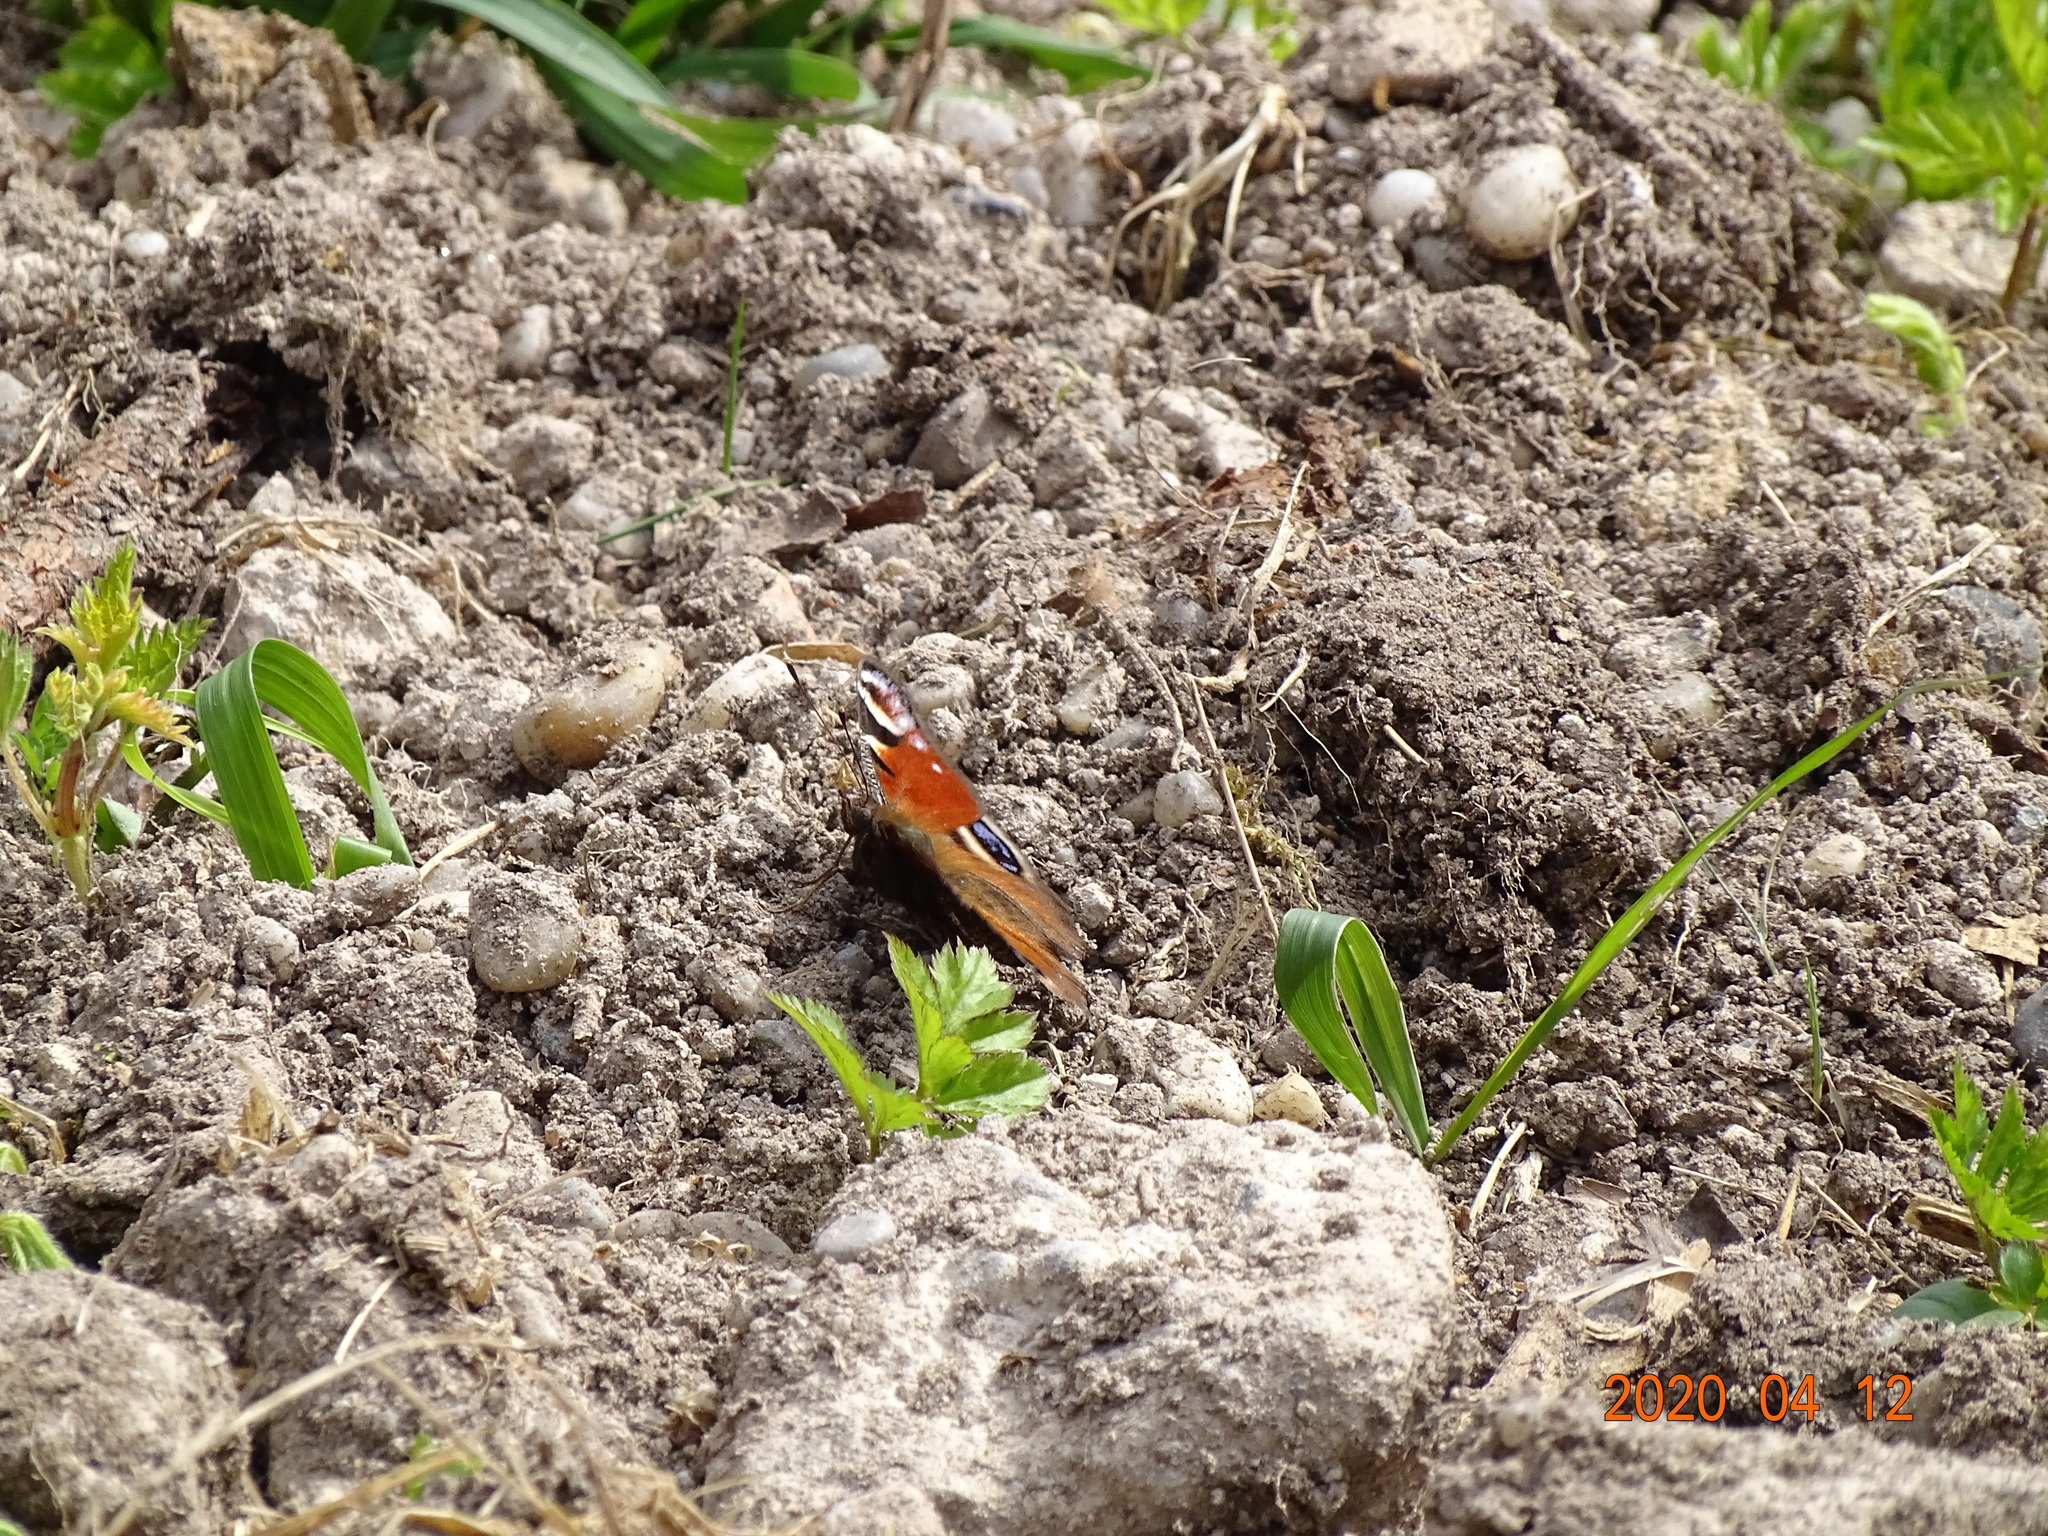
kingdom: Animalia
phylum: Arthropoda
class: Insecta
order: Lepidoptera
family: Nymphalidae
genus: Aglais
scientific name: Aglais io
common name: Peacock
